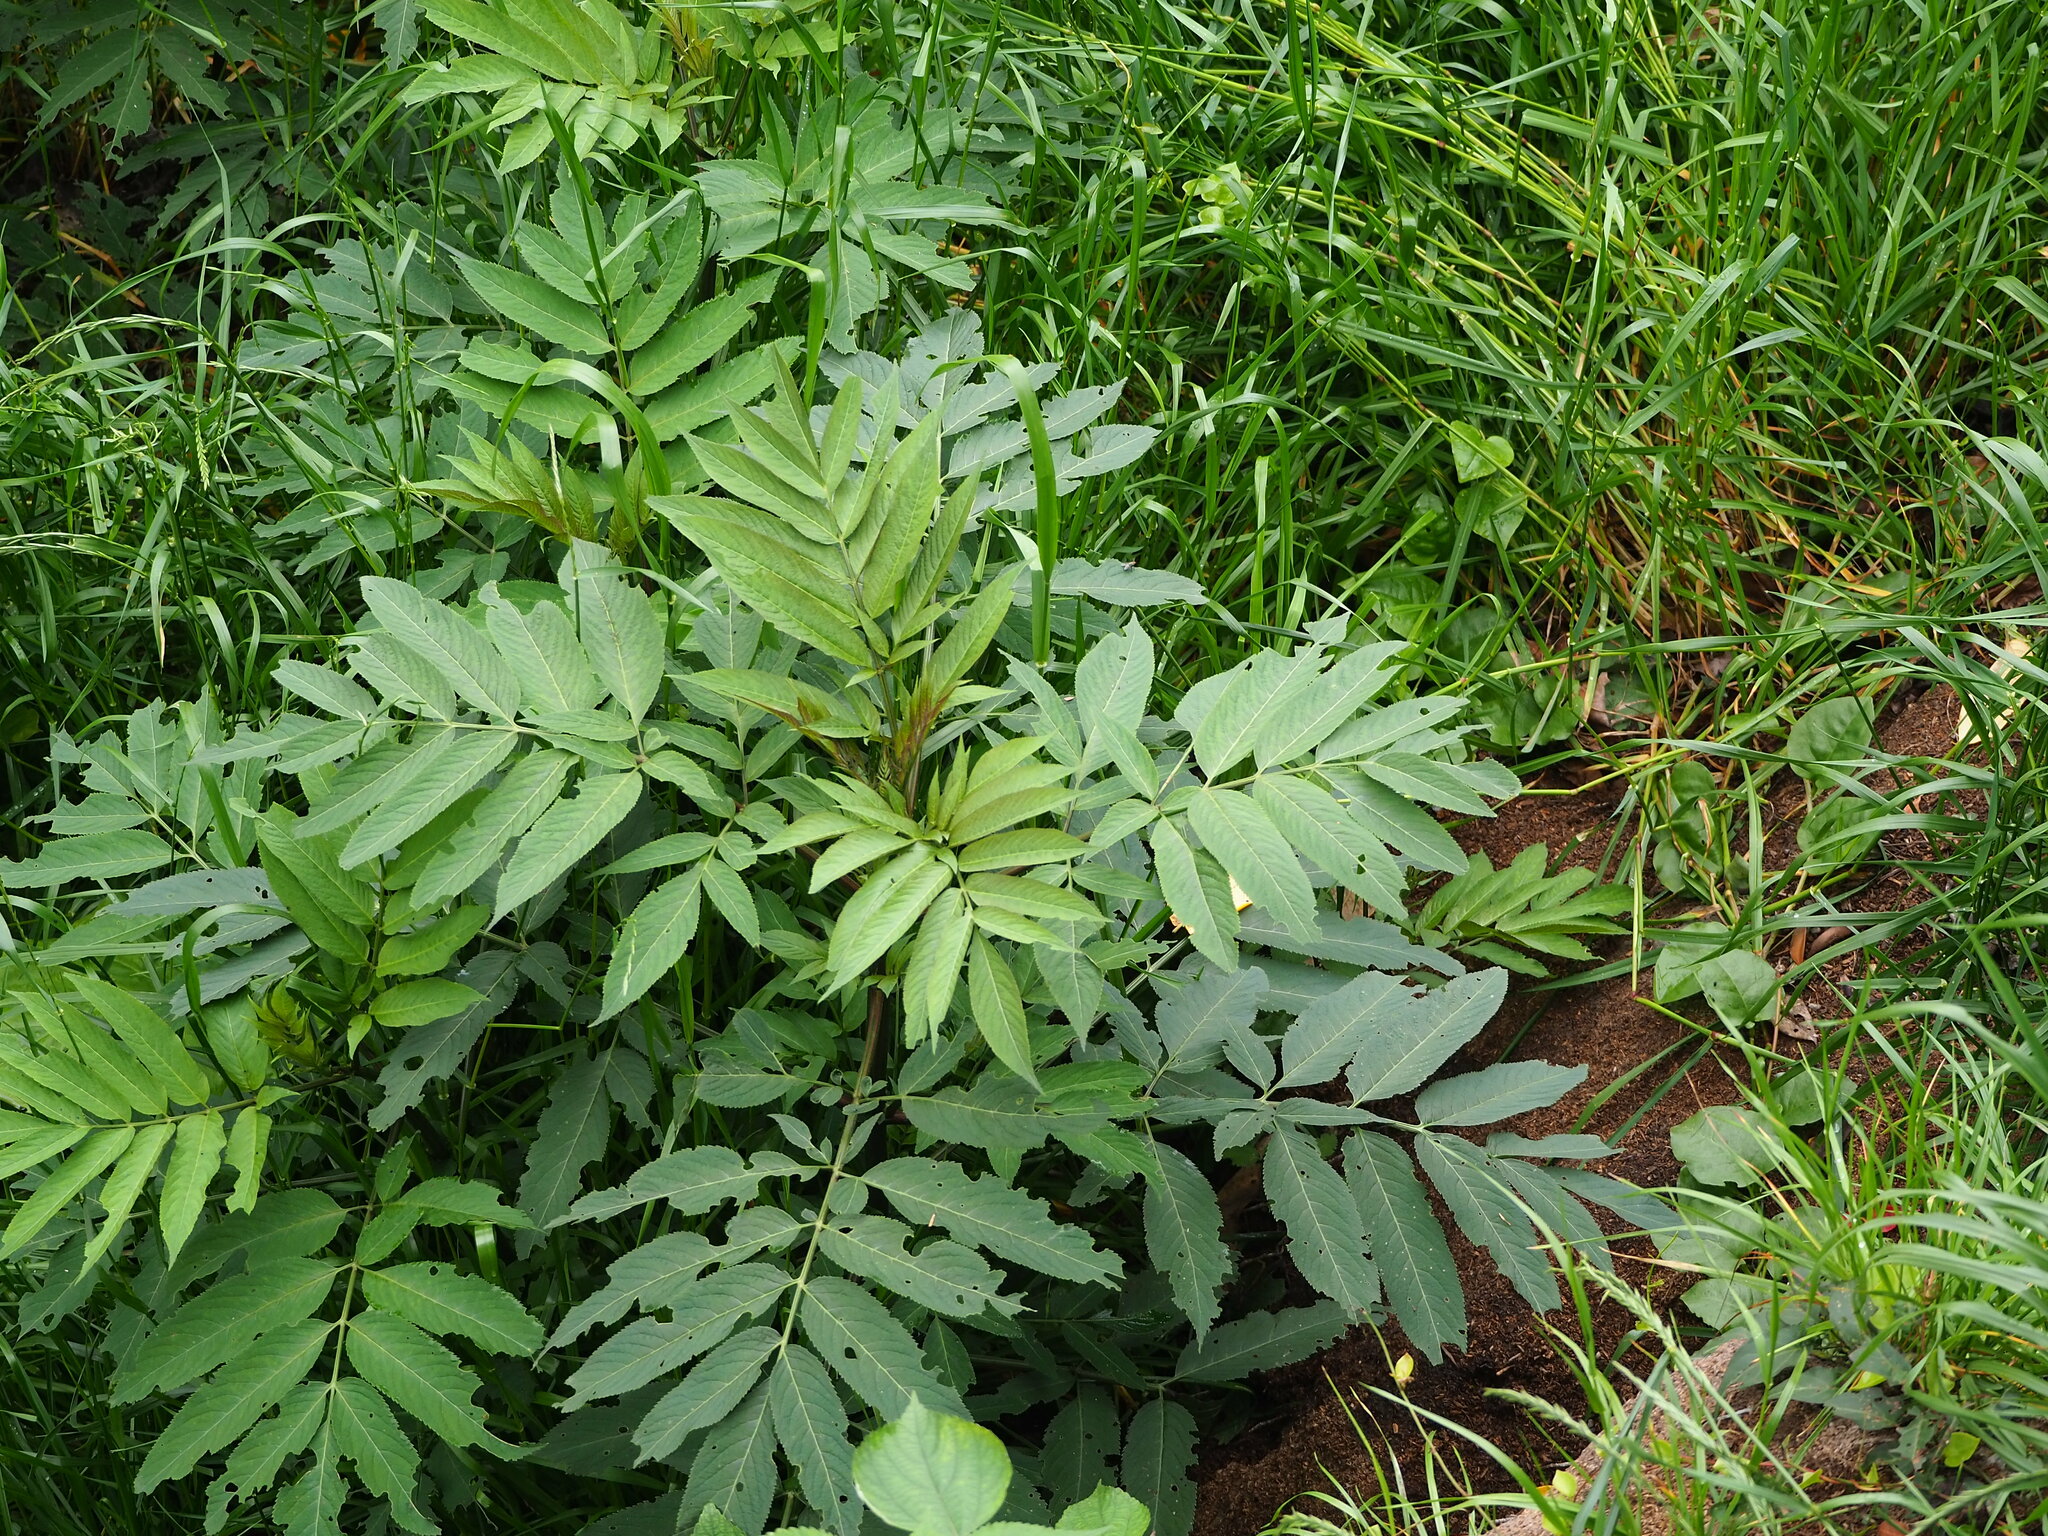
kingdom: Plantae
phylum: Tracheophyta
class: Magnoliopsida
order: Dipsacales
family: Viburnaceae
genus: Sambucus
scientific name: Sambucus javanica
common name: Chinese elder
